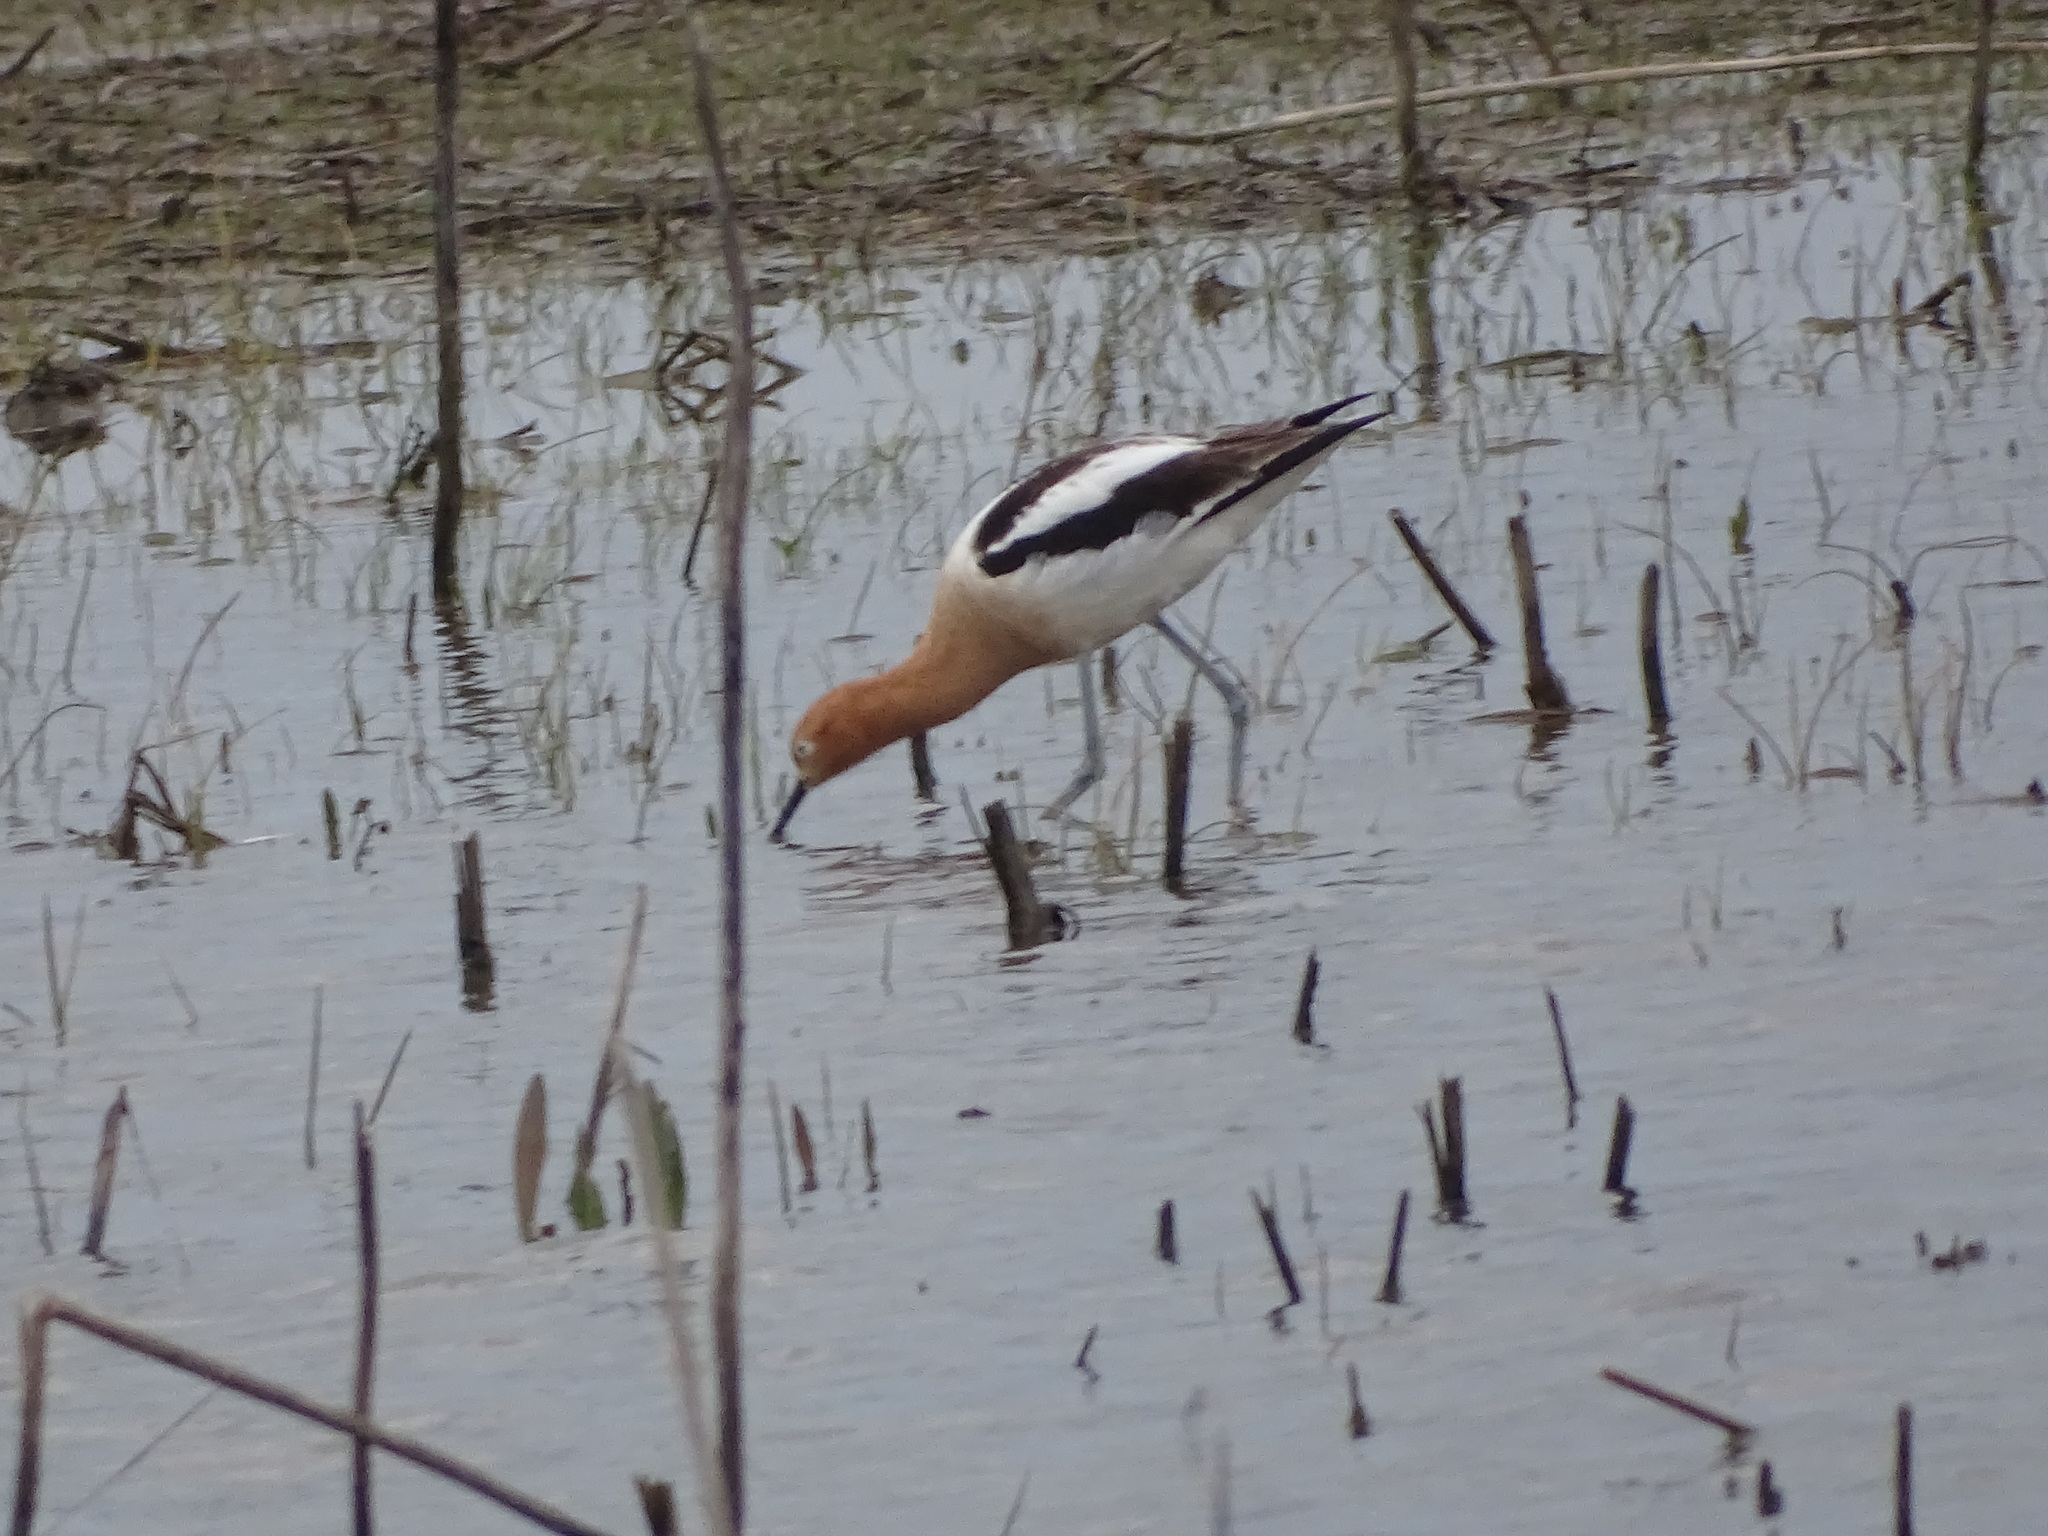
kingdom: Animalia
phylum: Chordata
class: Aves
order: Charadriiformes
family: Recurvirostridae
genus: Recurvirostra
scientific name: Recurvirostra americana
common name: American avocet
